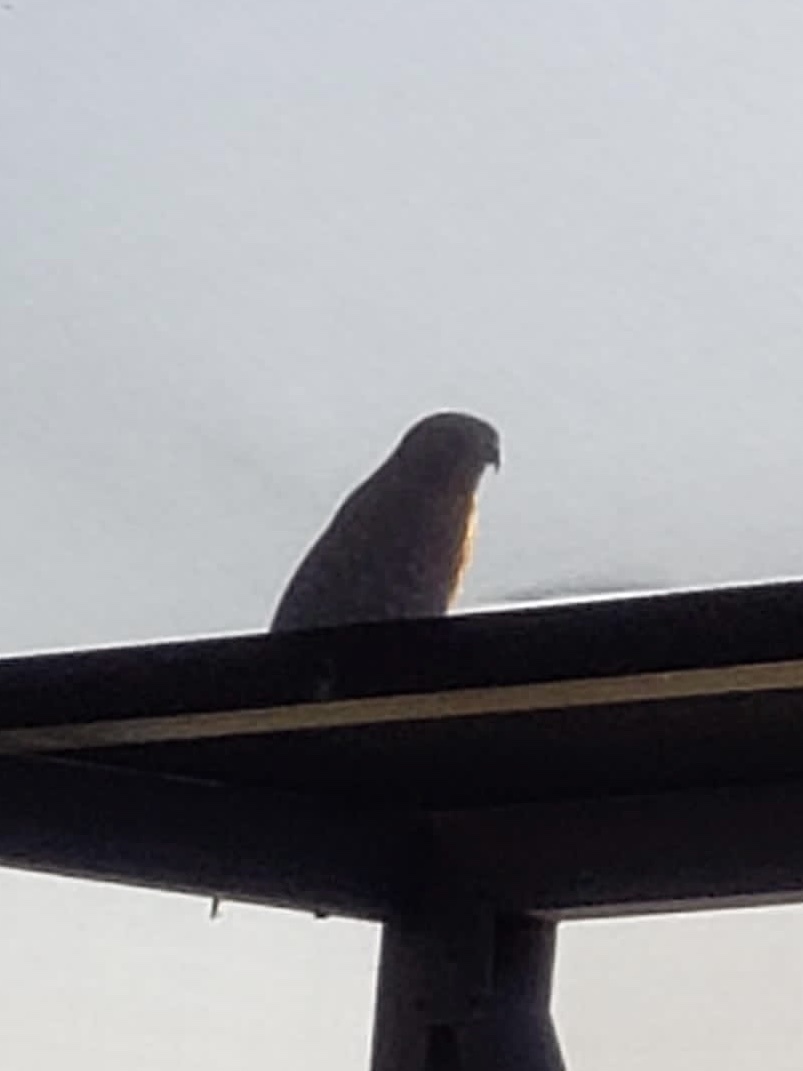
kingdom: Animalia
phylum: Chordata
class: Aves
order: Accipitriformes
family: Accipitridae
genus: Buteo
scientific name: Buteo lineatus
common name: Red-shouldered hawk
